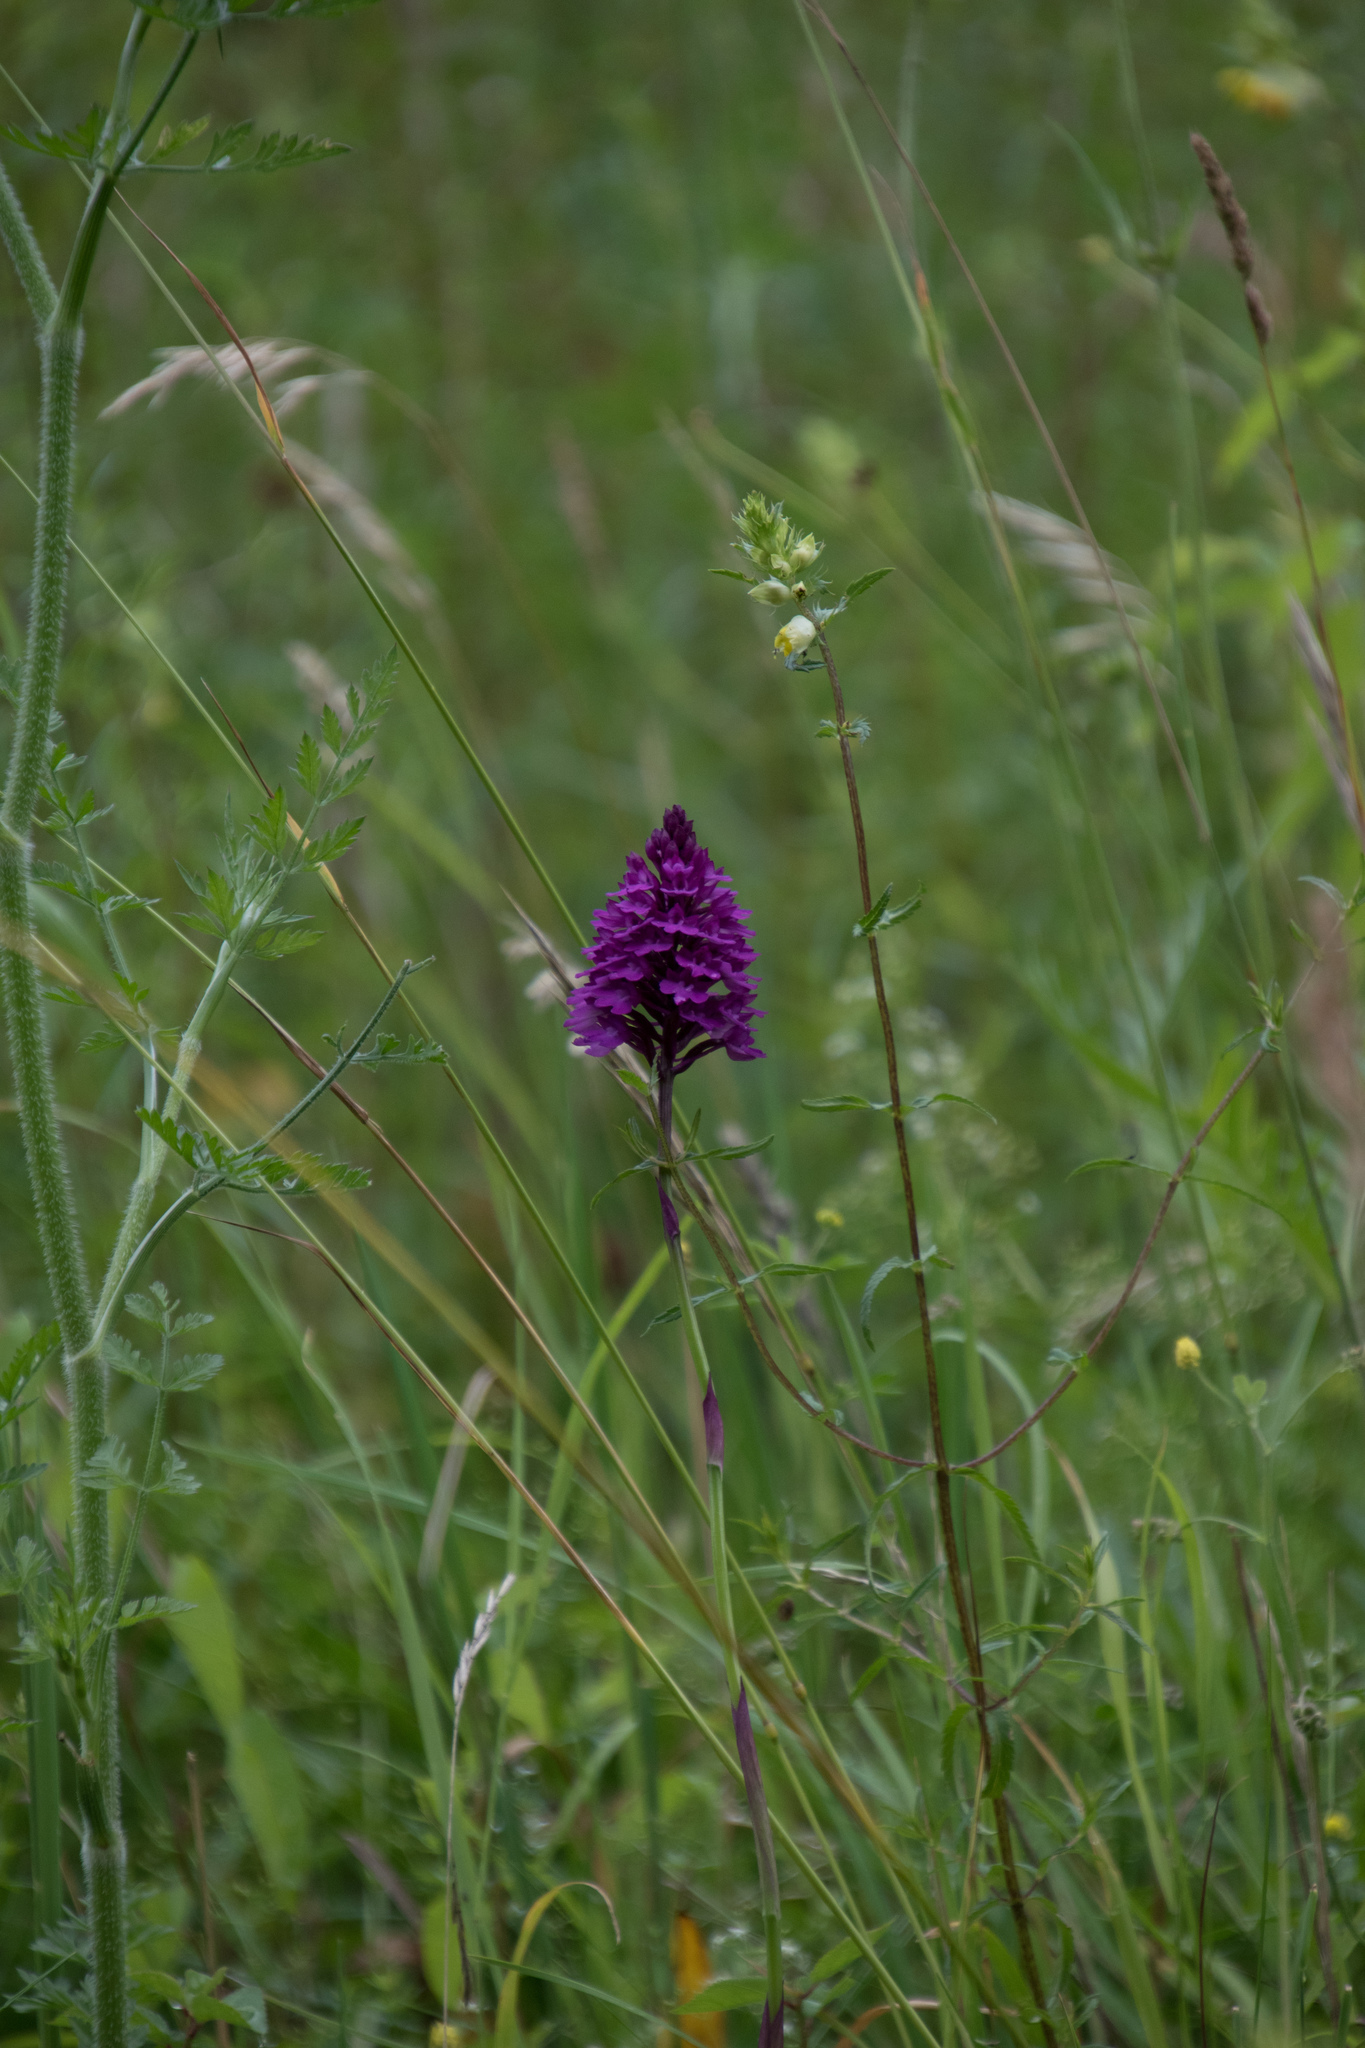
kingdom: Plantae
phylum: Tracheophyta
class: Liliopsida
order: Asparagales
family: Orchidaceae
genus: Anacamptis
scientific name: Anacamptis pyramidalis
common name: Pyramidal orchid
